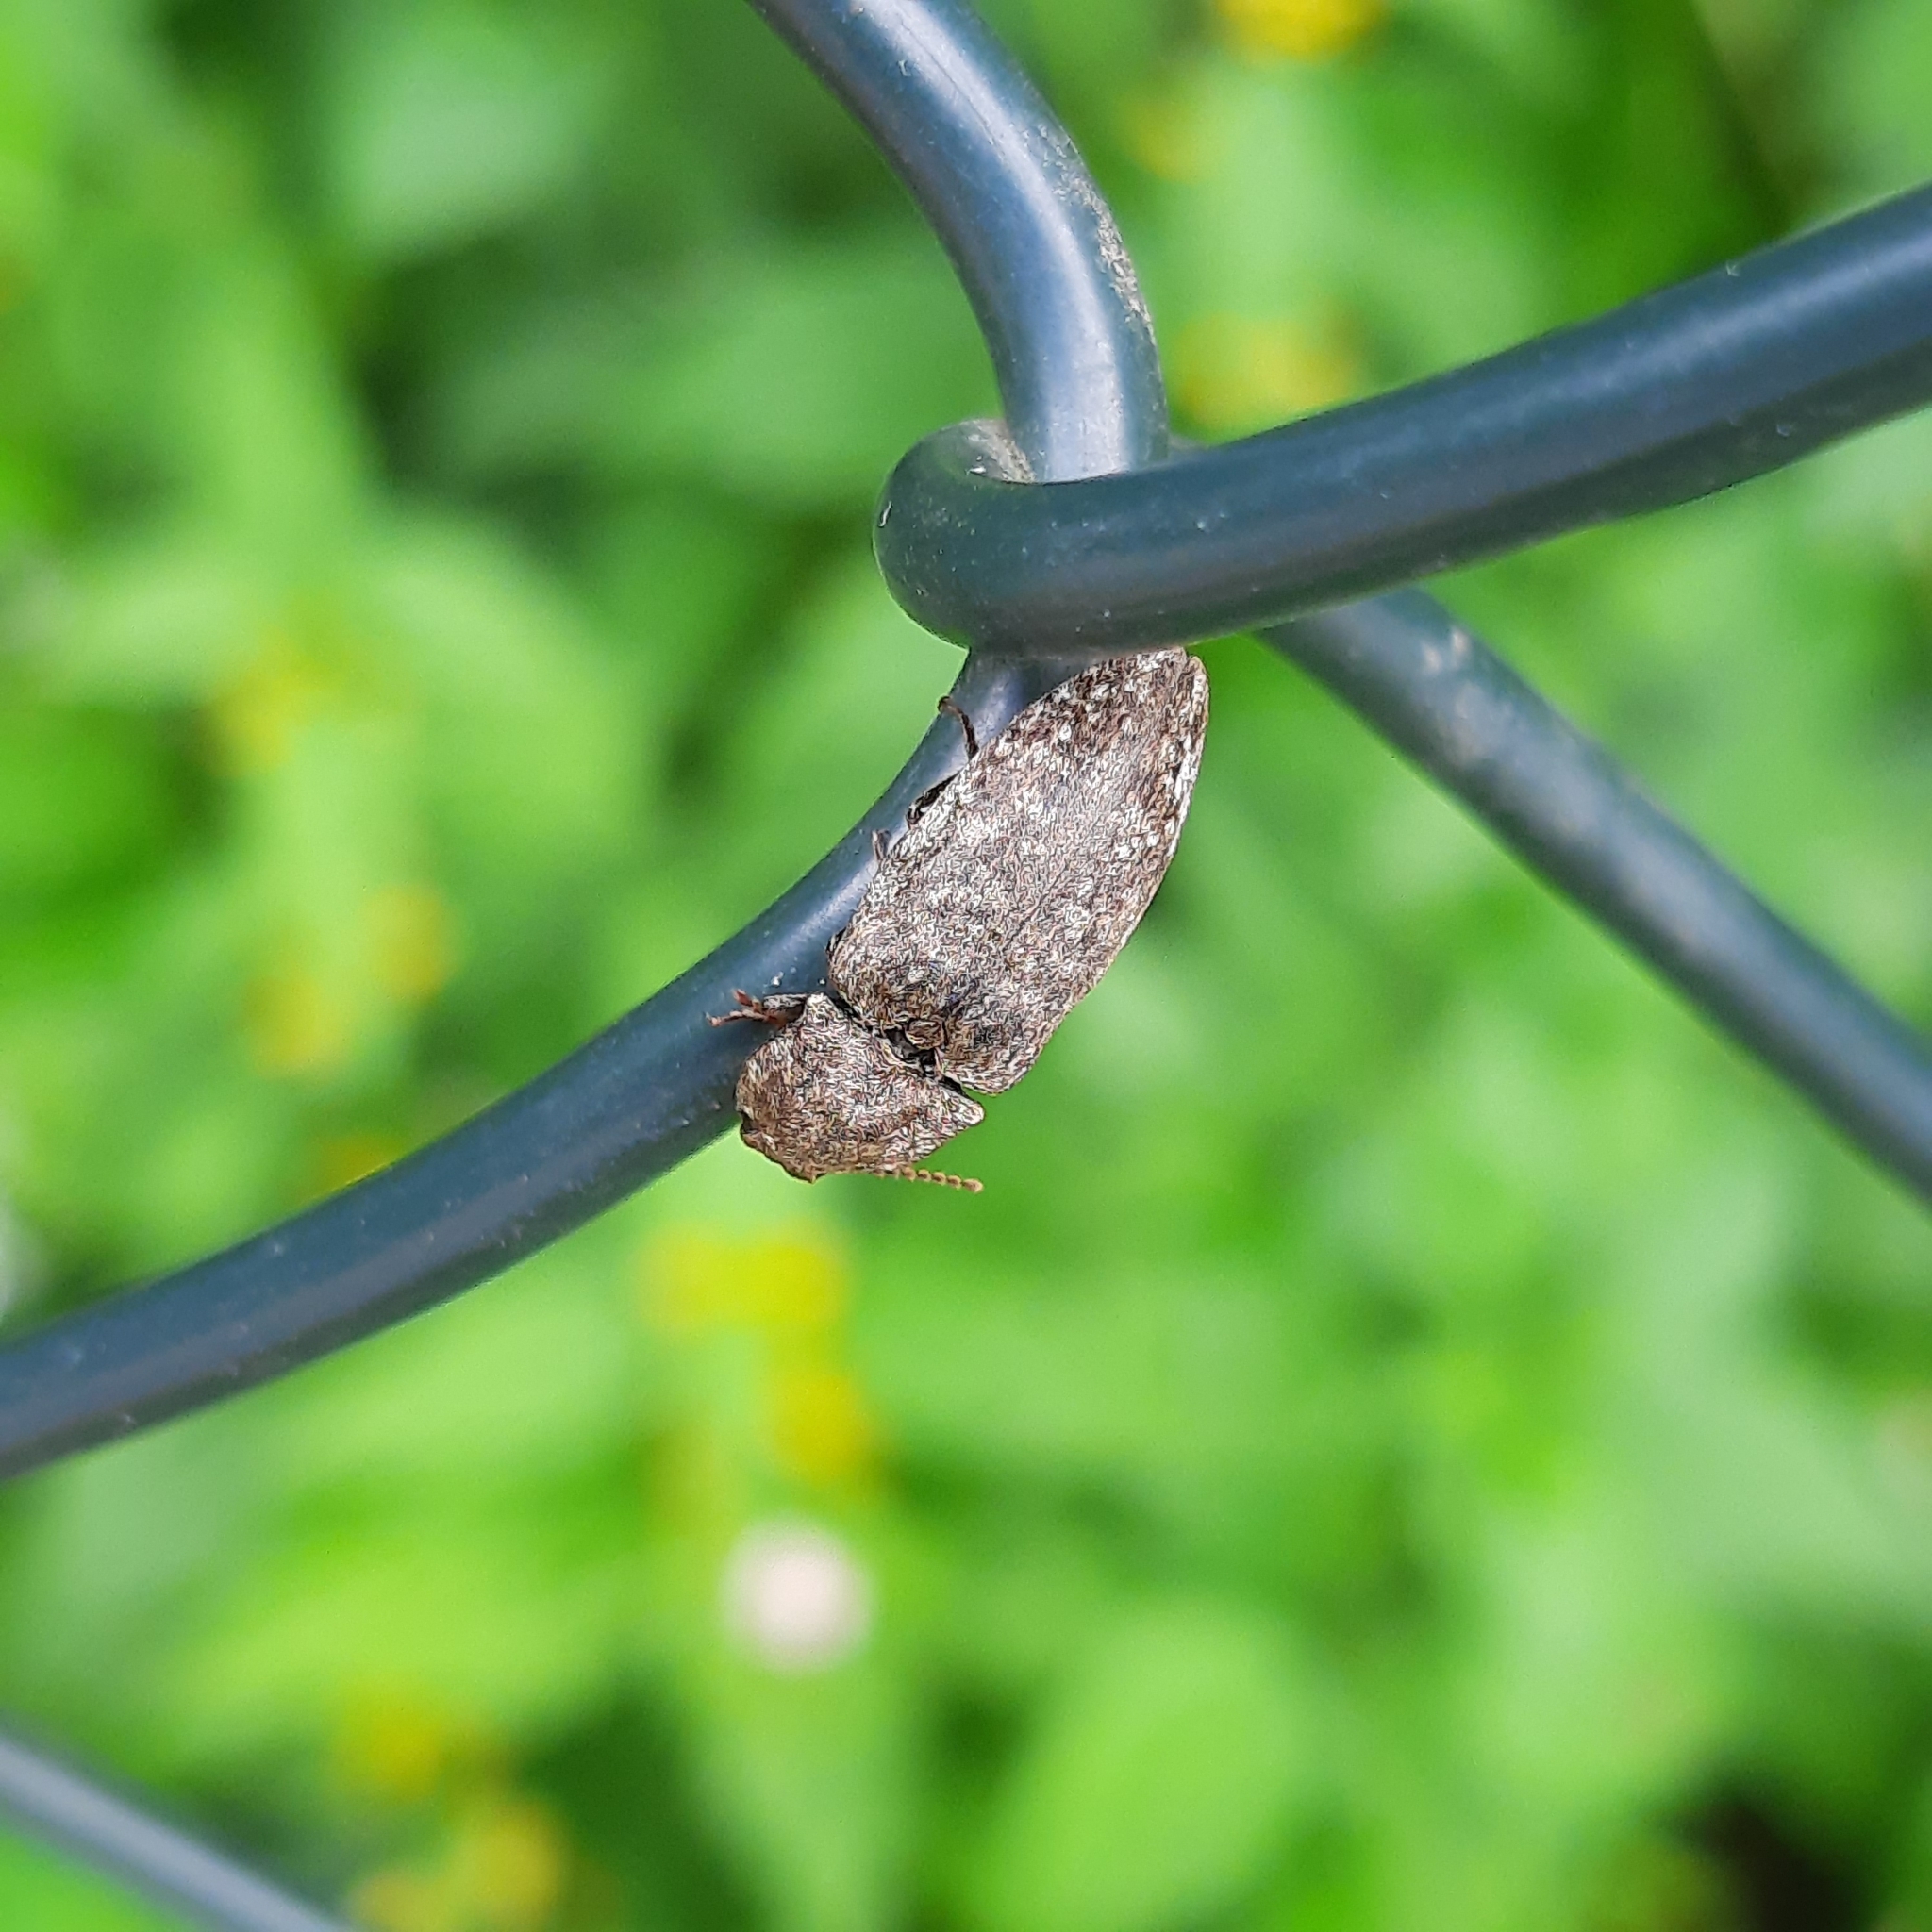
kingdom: Animalia
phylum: Arthropoda
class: Insecta
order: Coleoptera
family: Elateridae
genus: Agrypnus
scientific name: Agrypnus murinus
